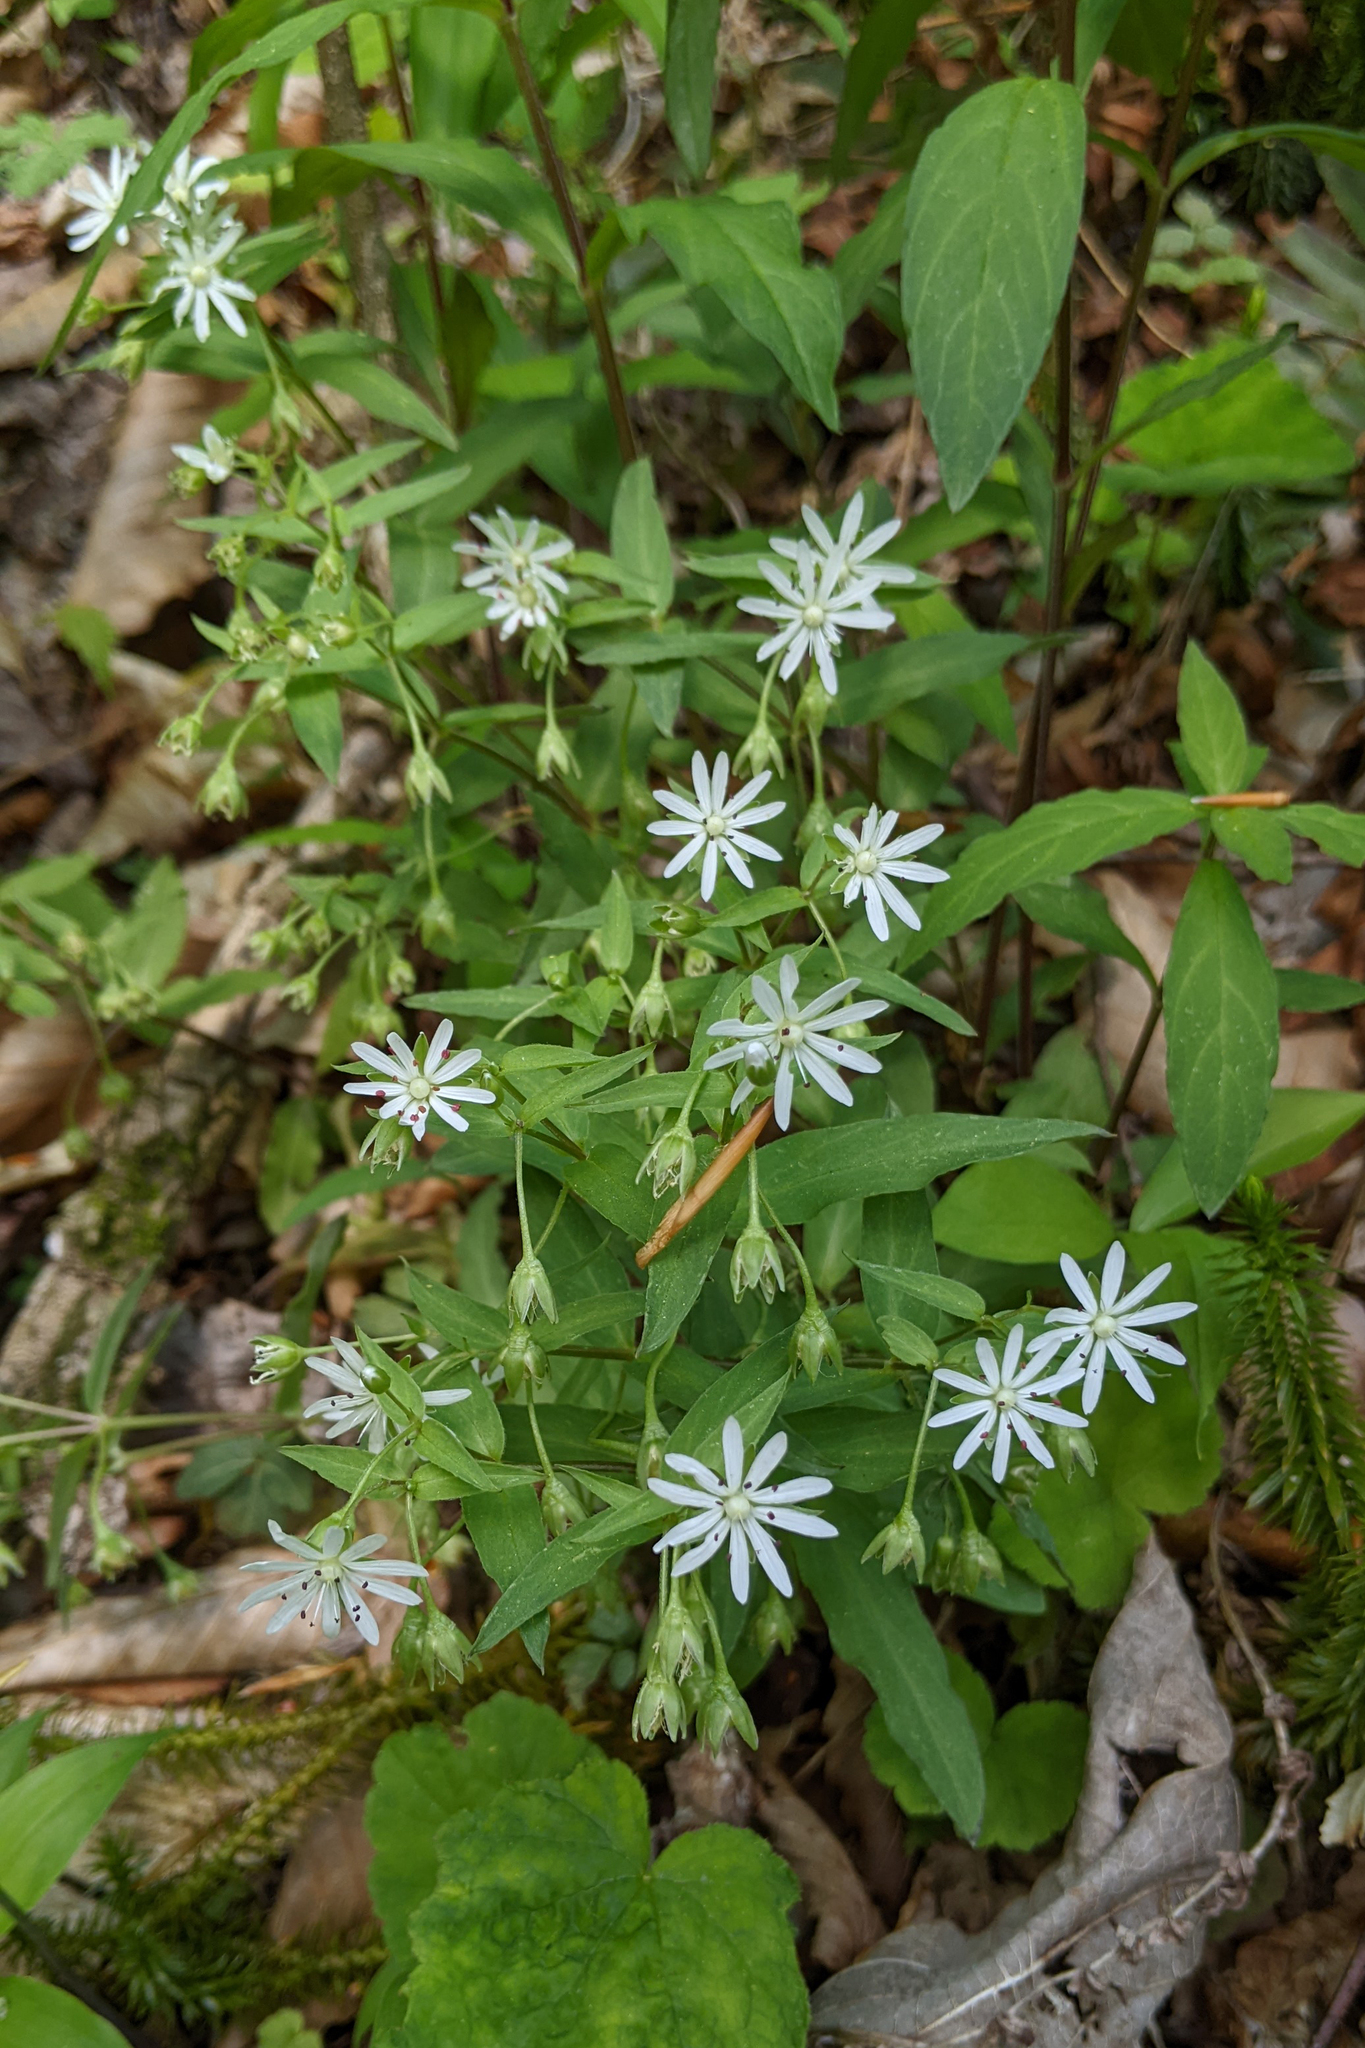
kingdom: Plantae
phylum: Tracheophyta
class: Magnoliopsida
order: Caryophyllales
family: Caryophyllaceae
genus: Stellaria
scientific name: Stellaria pubera
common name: Star chickweed
